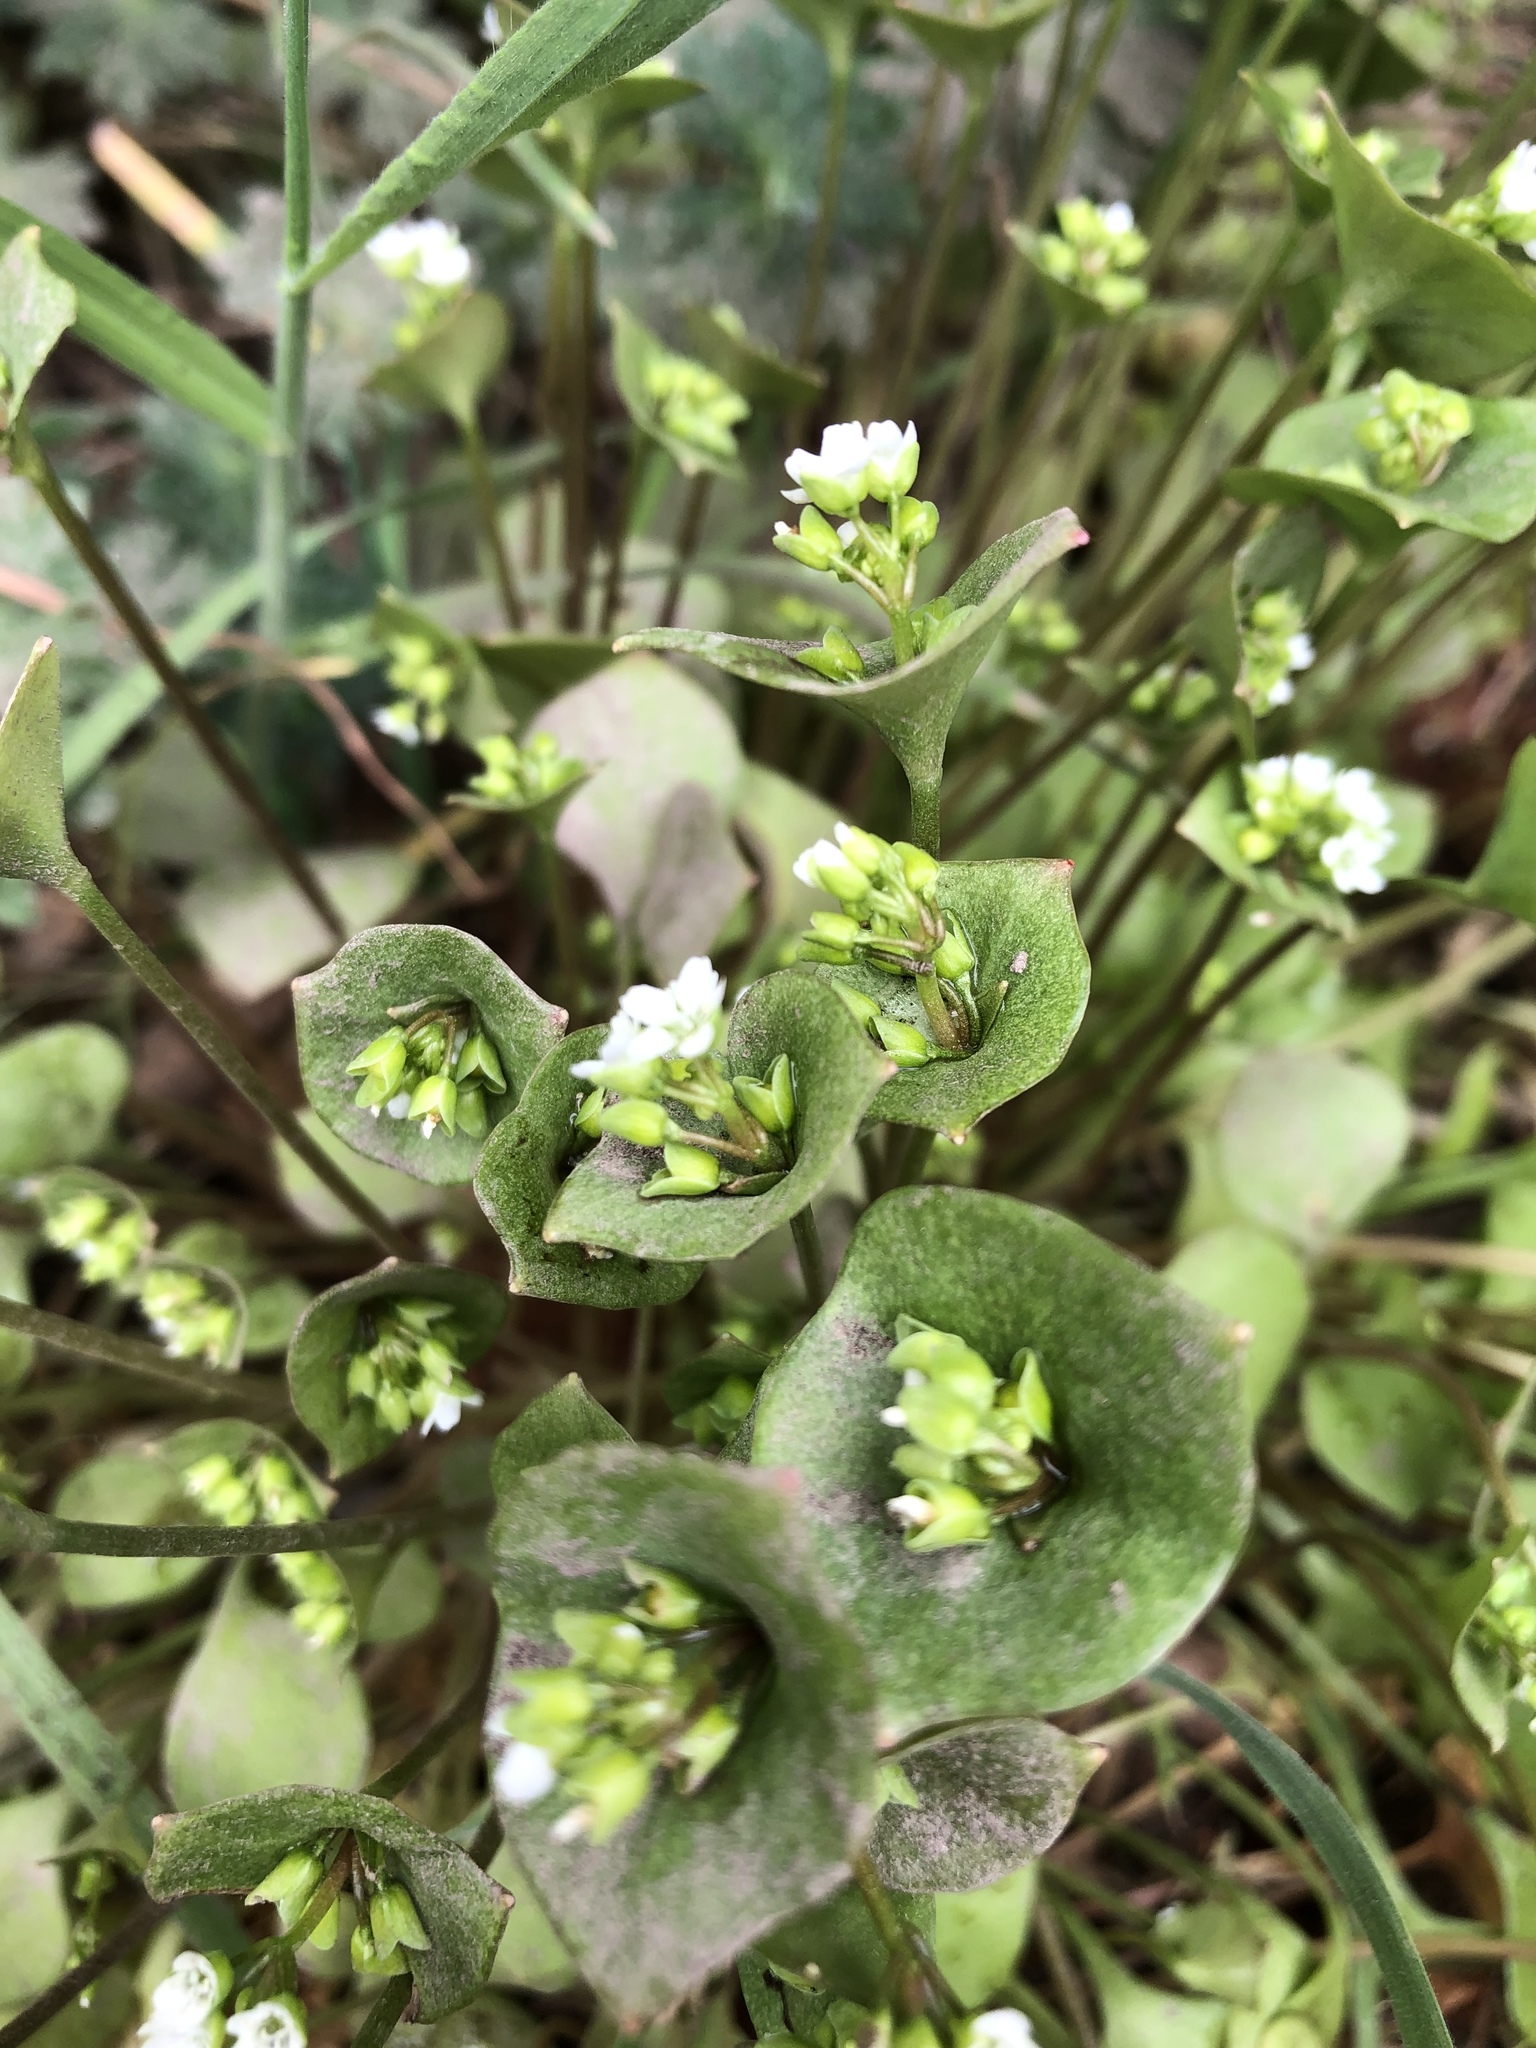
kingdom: Plantae
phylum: Tracheophyta
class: Magnoliopsida
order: Caryophyllales
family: Montiaceae
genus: Claytonia
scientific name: Claytonia perfoliata
